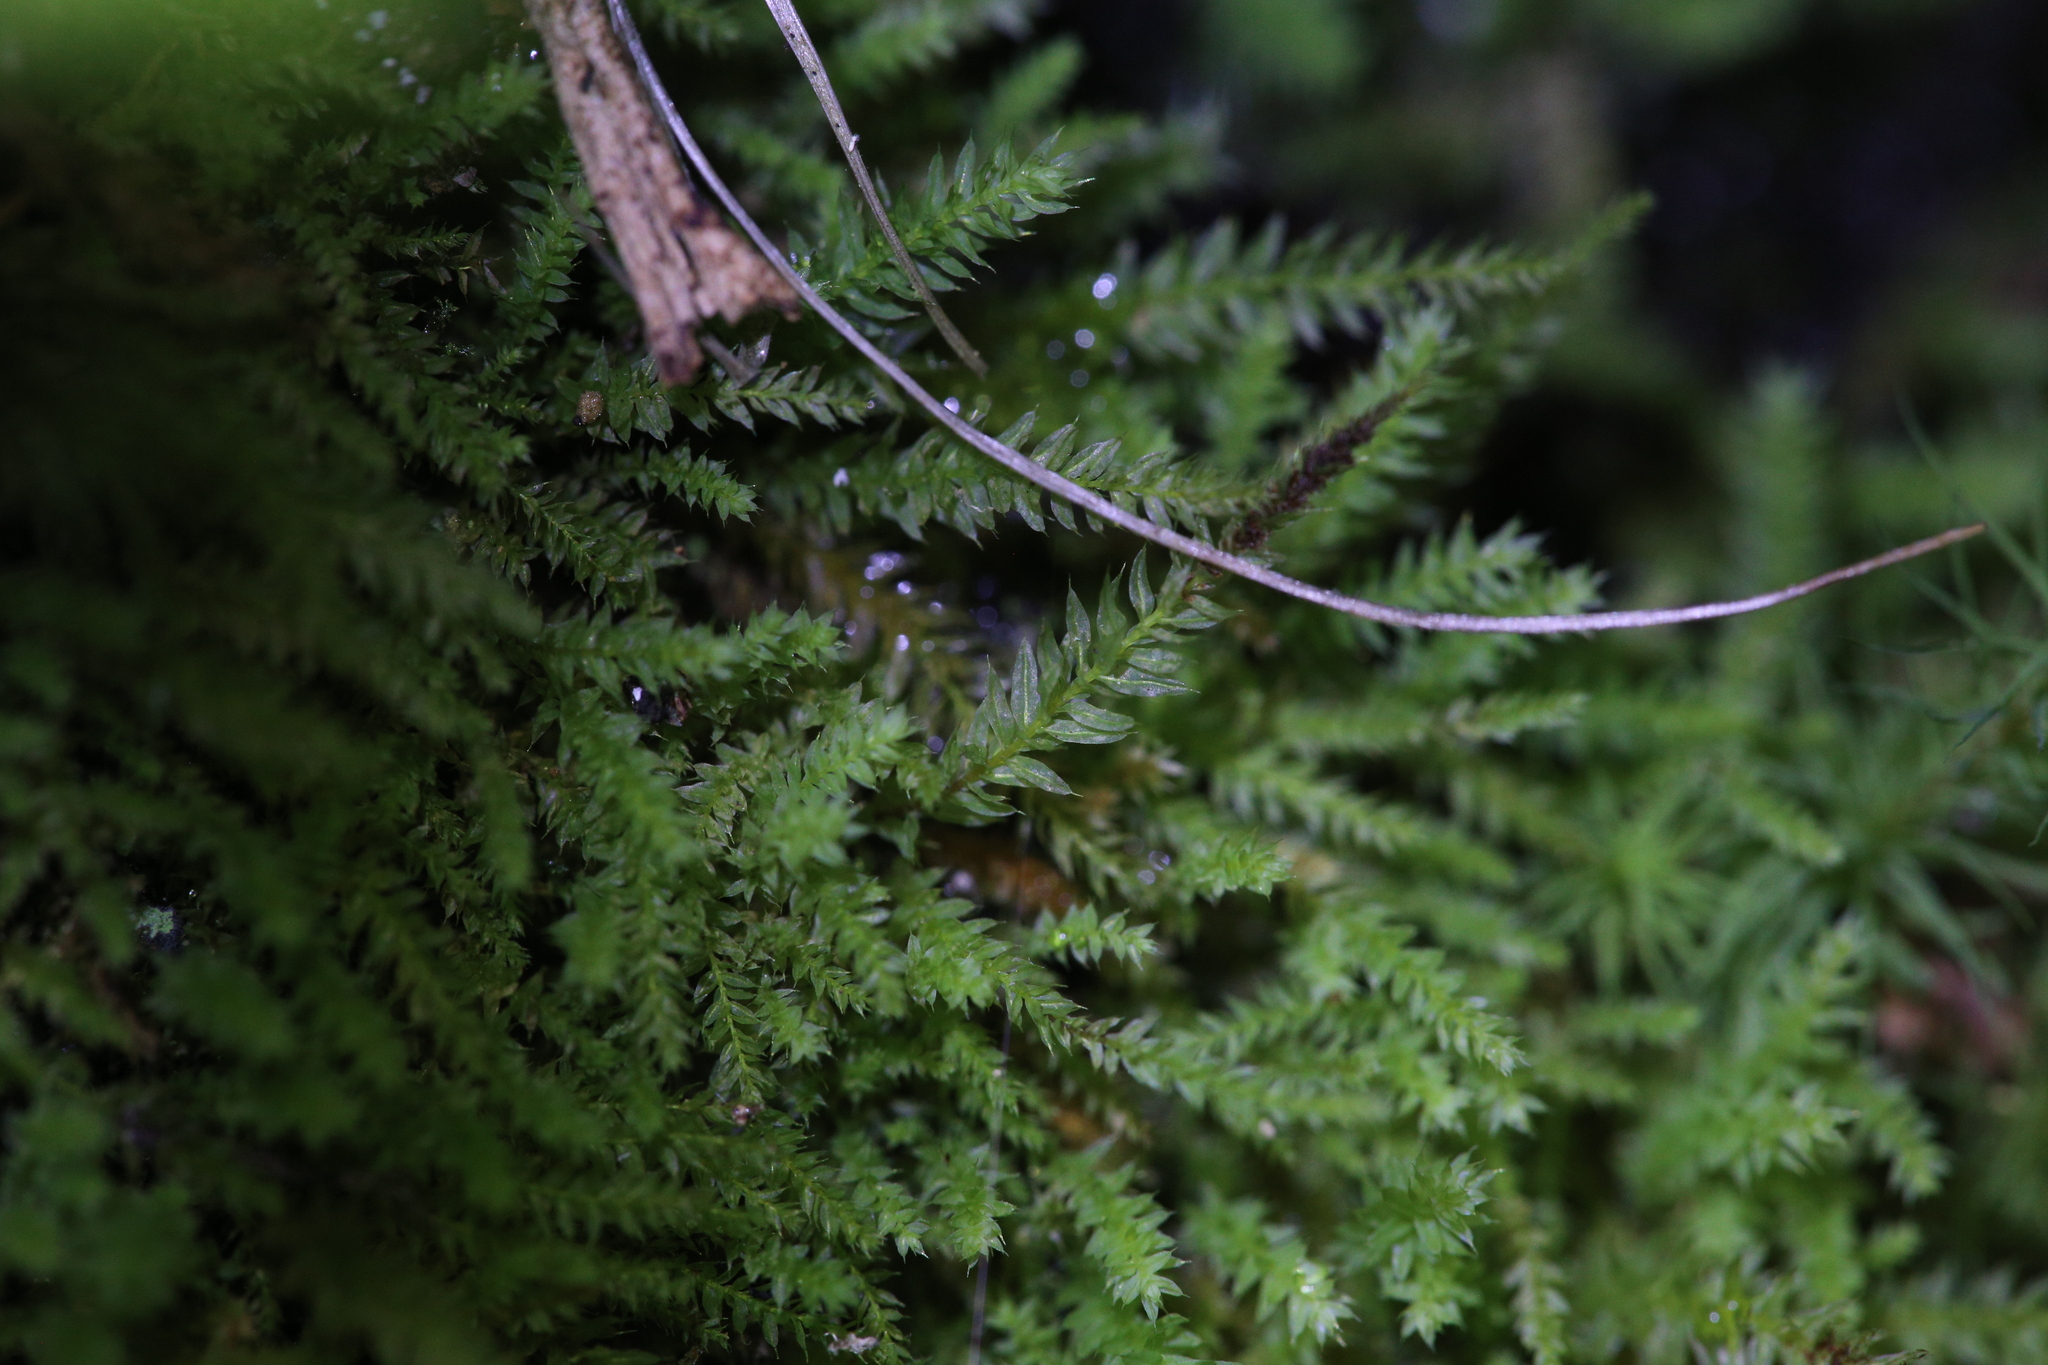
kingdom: Plantae
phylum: Bryophyta
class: Bryopsida
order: Hypnodendrales
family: Racopilaceae
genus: Racopilum
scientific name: Racopilum cuspidigerum
